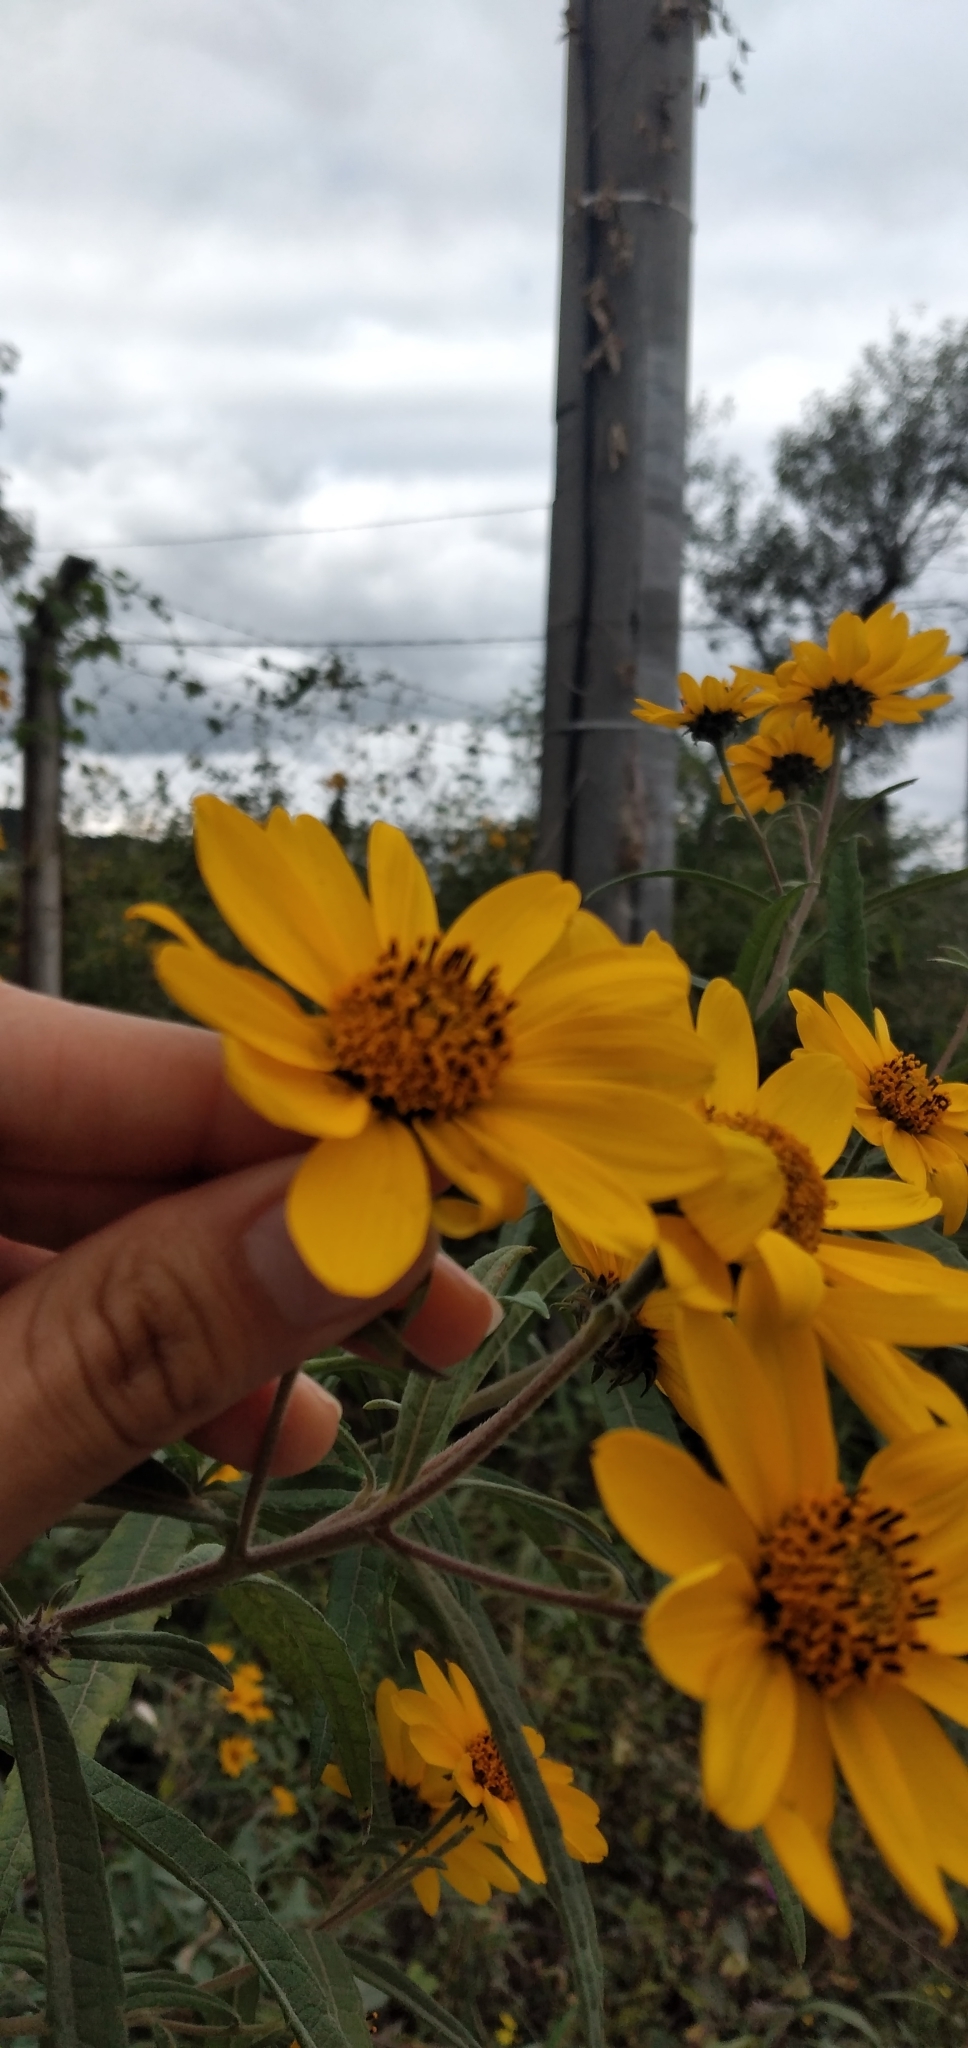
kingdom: Plantae
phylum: Tracheophyta
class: Magnoliopsida
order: Asterales
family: Asteraceae
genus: Aldama
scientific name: Aldama tucumanensis
